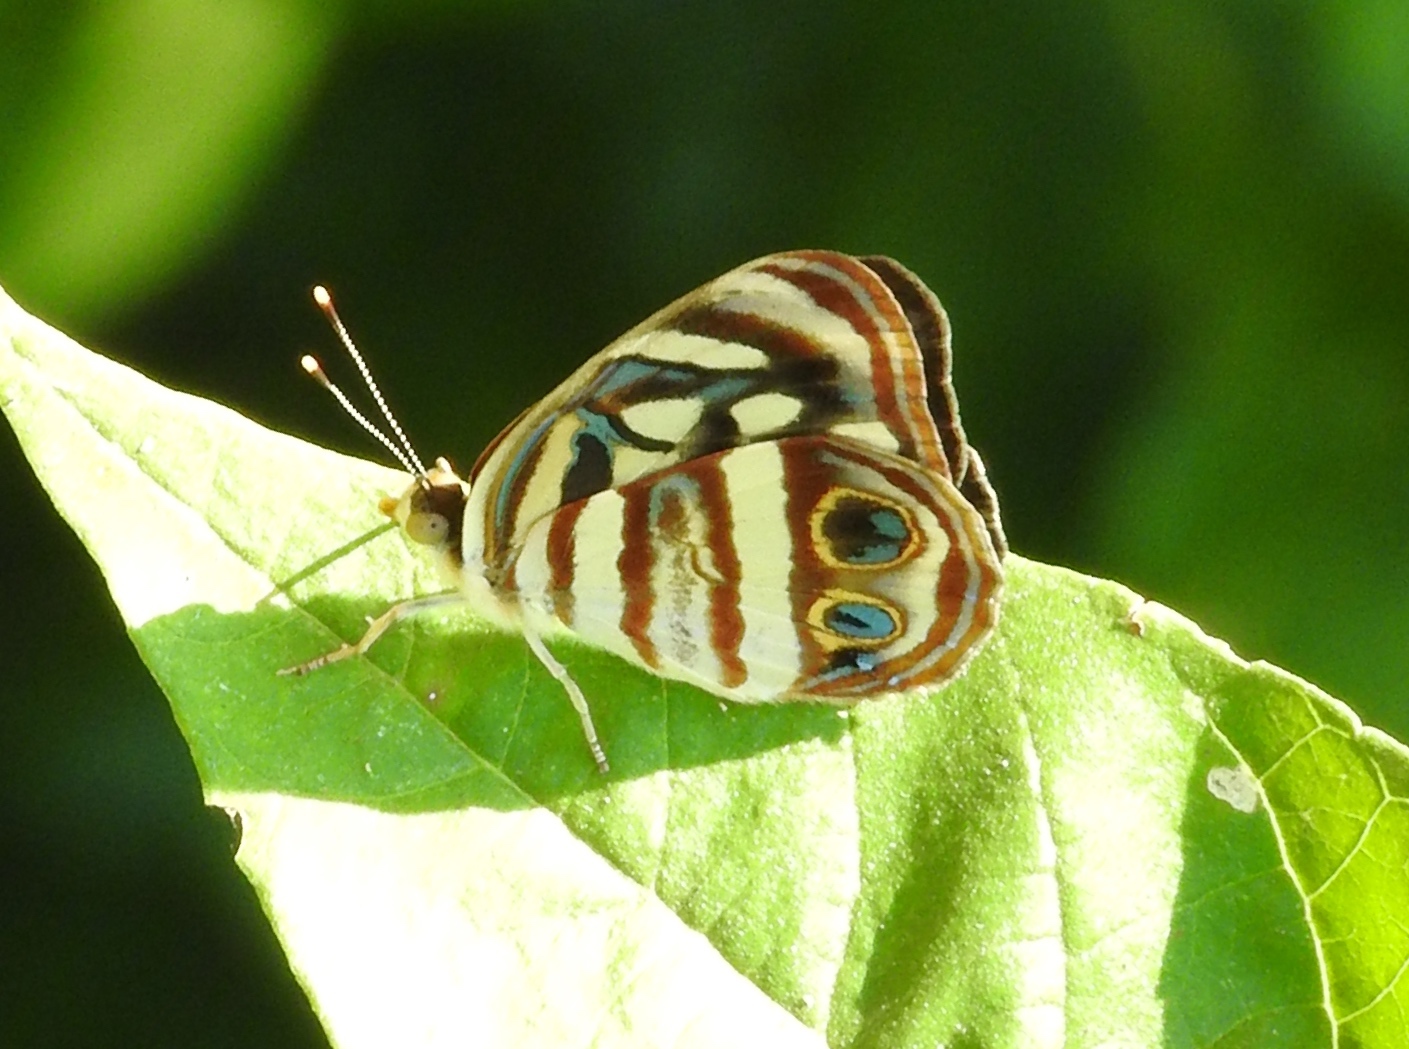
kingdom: Animalia
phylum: Arthropoda
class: Insecta
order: Lepidoptera
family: Nymphalidae
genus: Dynamine
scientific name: Dynamine mylitta
